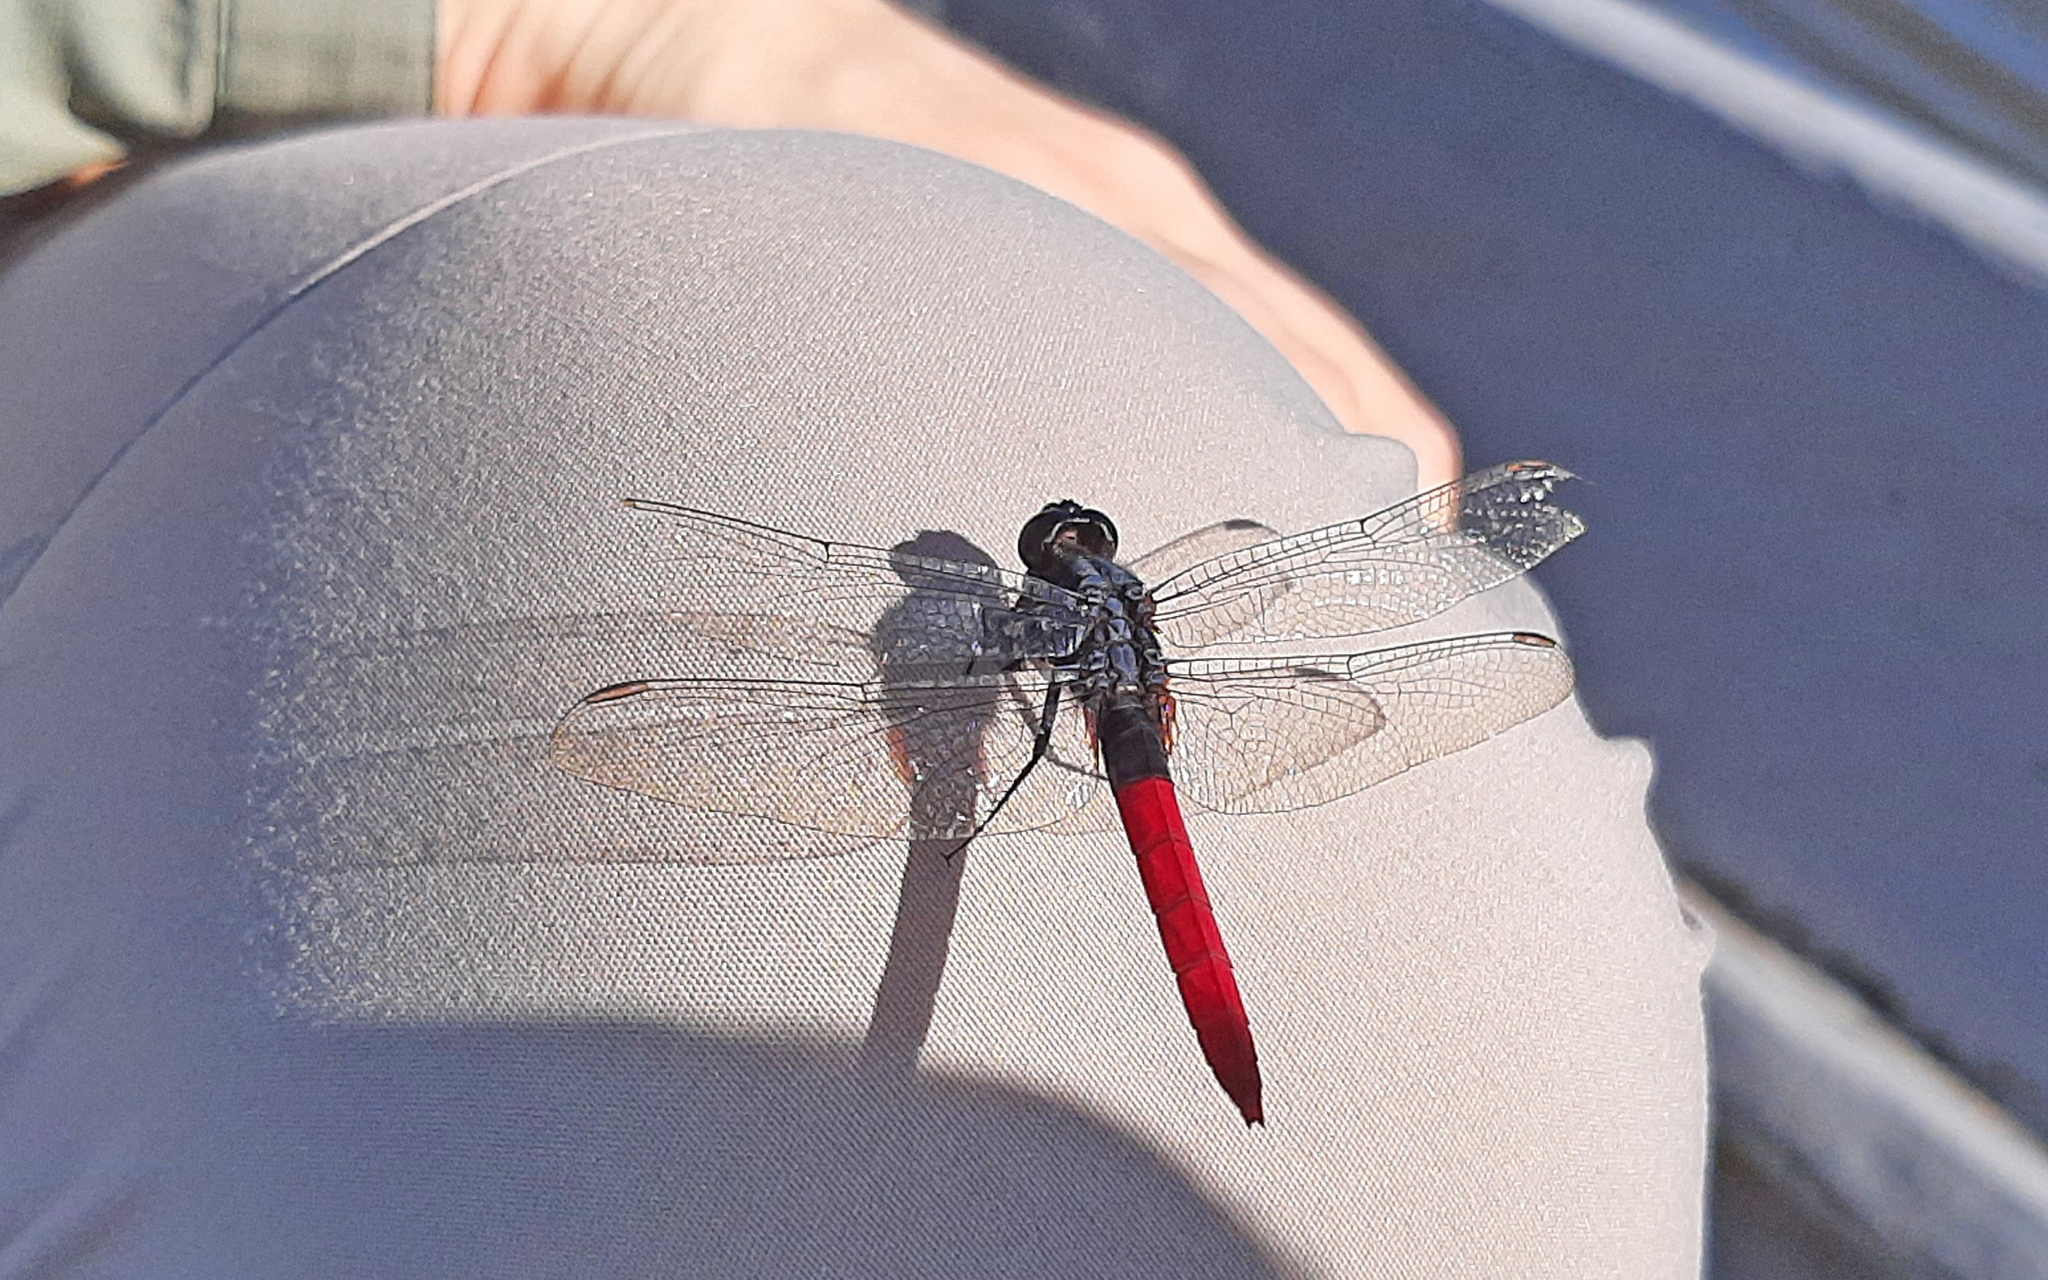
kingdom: Animalia
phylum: Arthropoda
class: Insecta
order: Odonata
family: Libellulidae
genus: Erythemis
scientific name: Erythemis peruviana
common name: Flame-tailed pondhawk
